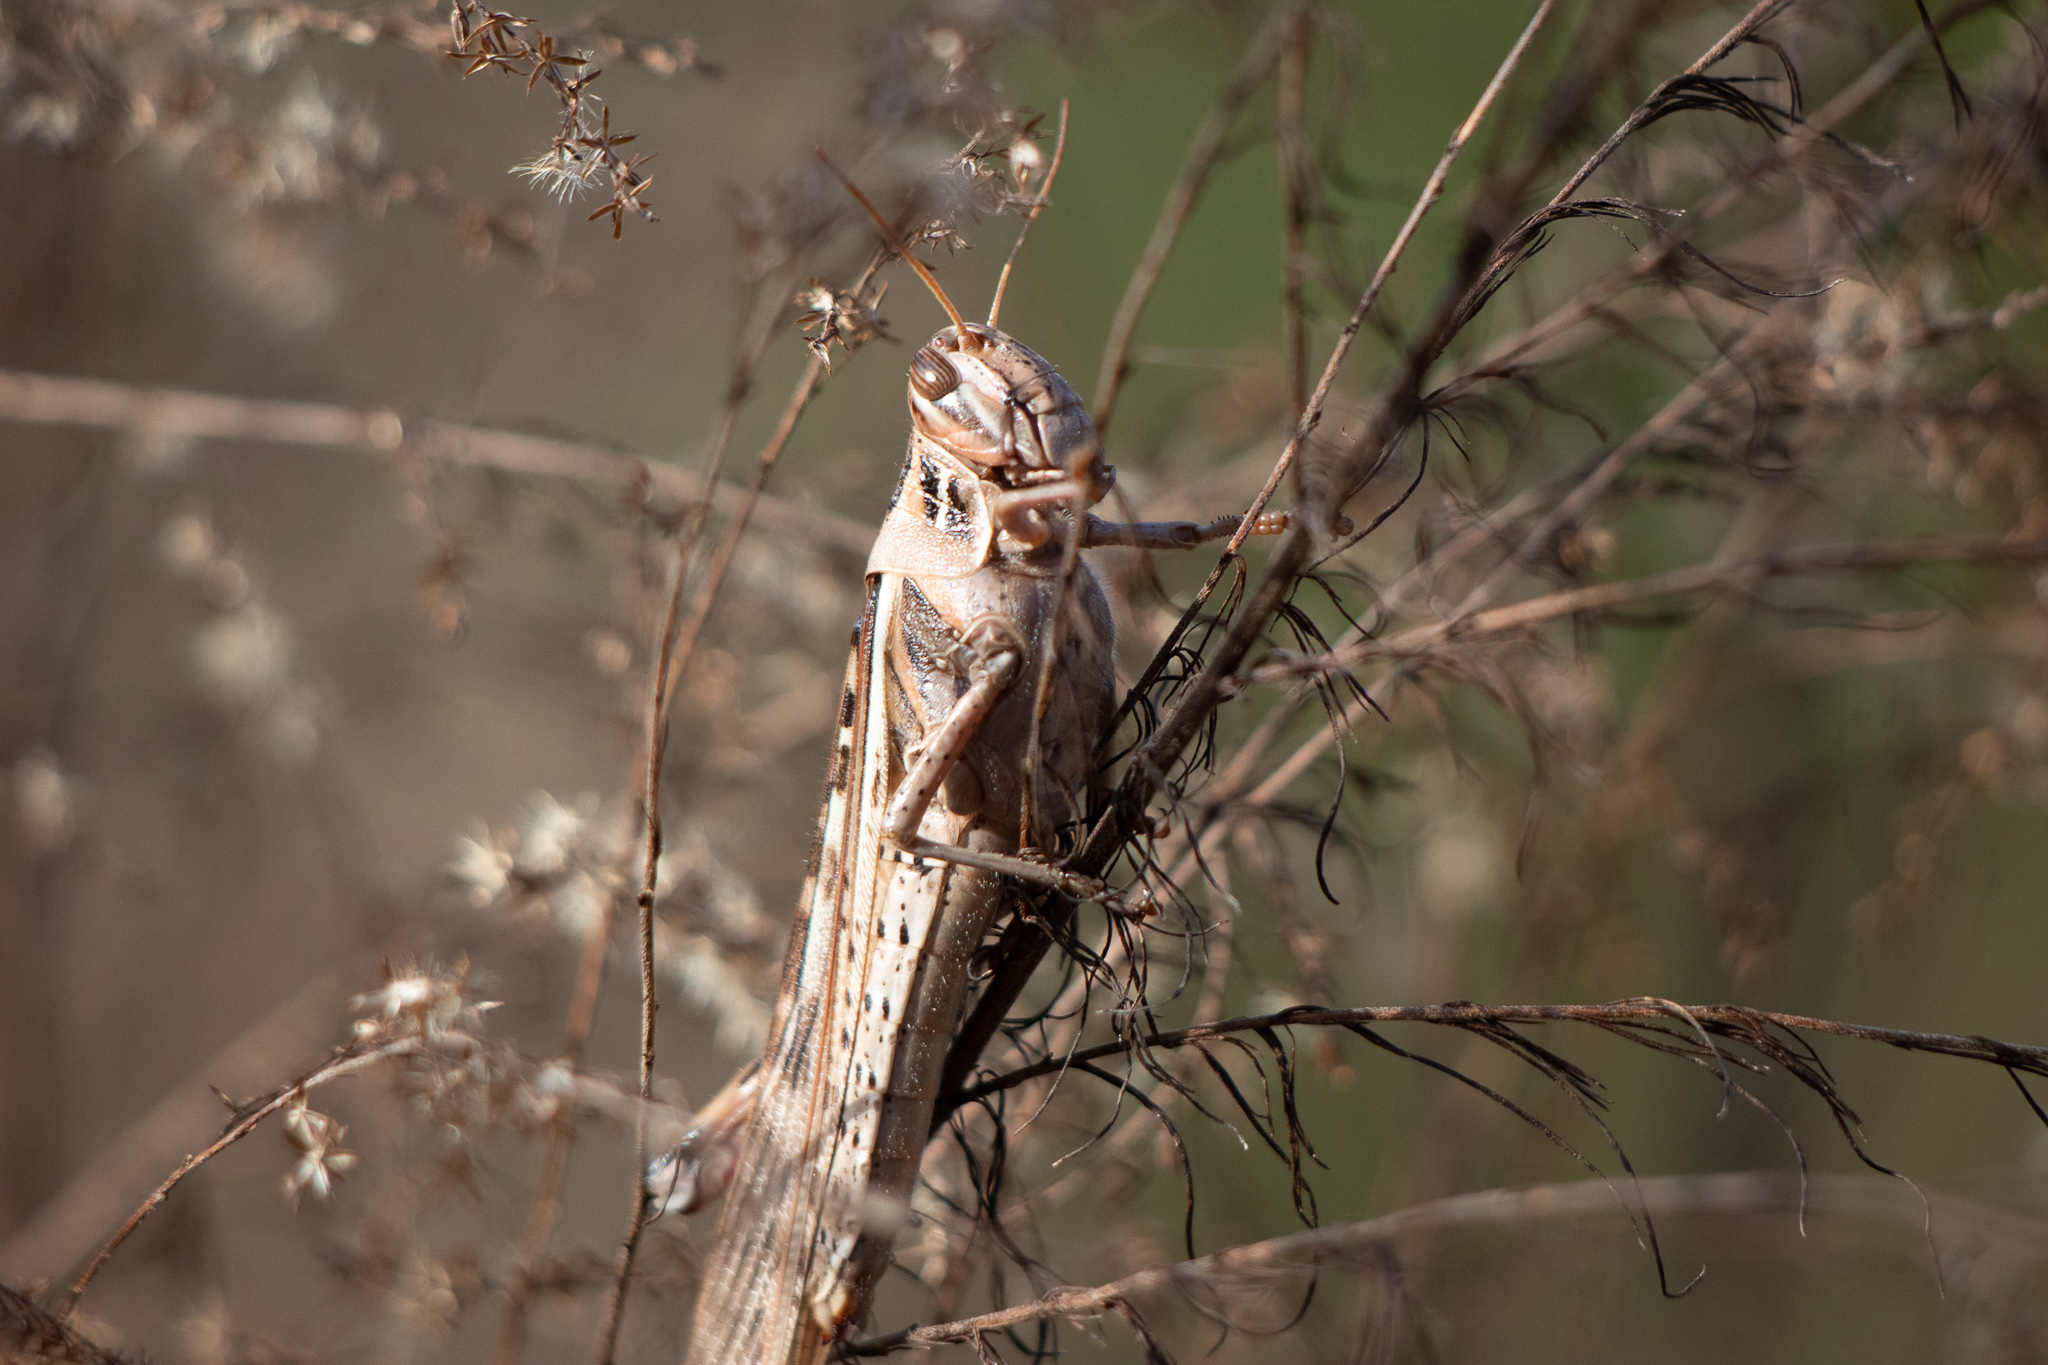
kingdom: Animalia
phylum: Arthropoda
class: Insecta
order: Orthoptera
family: Acrididae
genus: Schistocerca
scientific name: Schistocerca americana
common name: American bird locust
